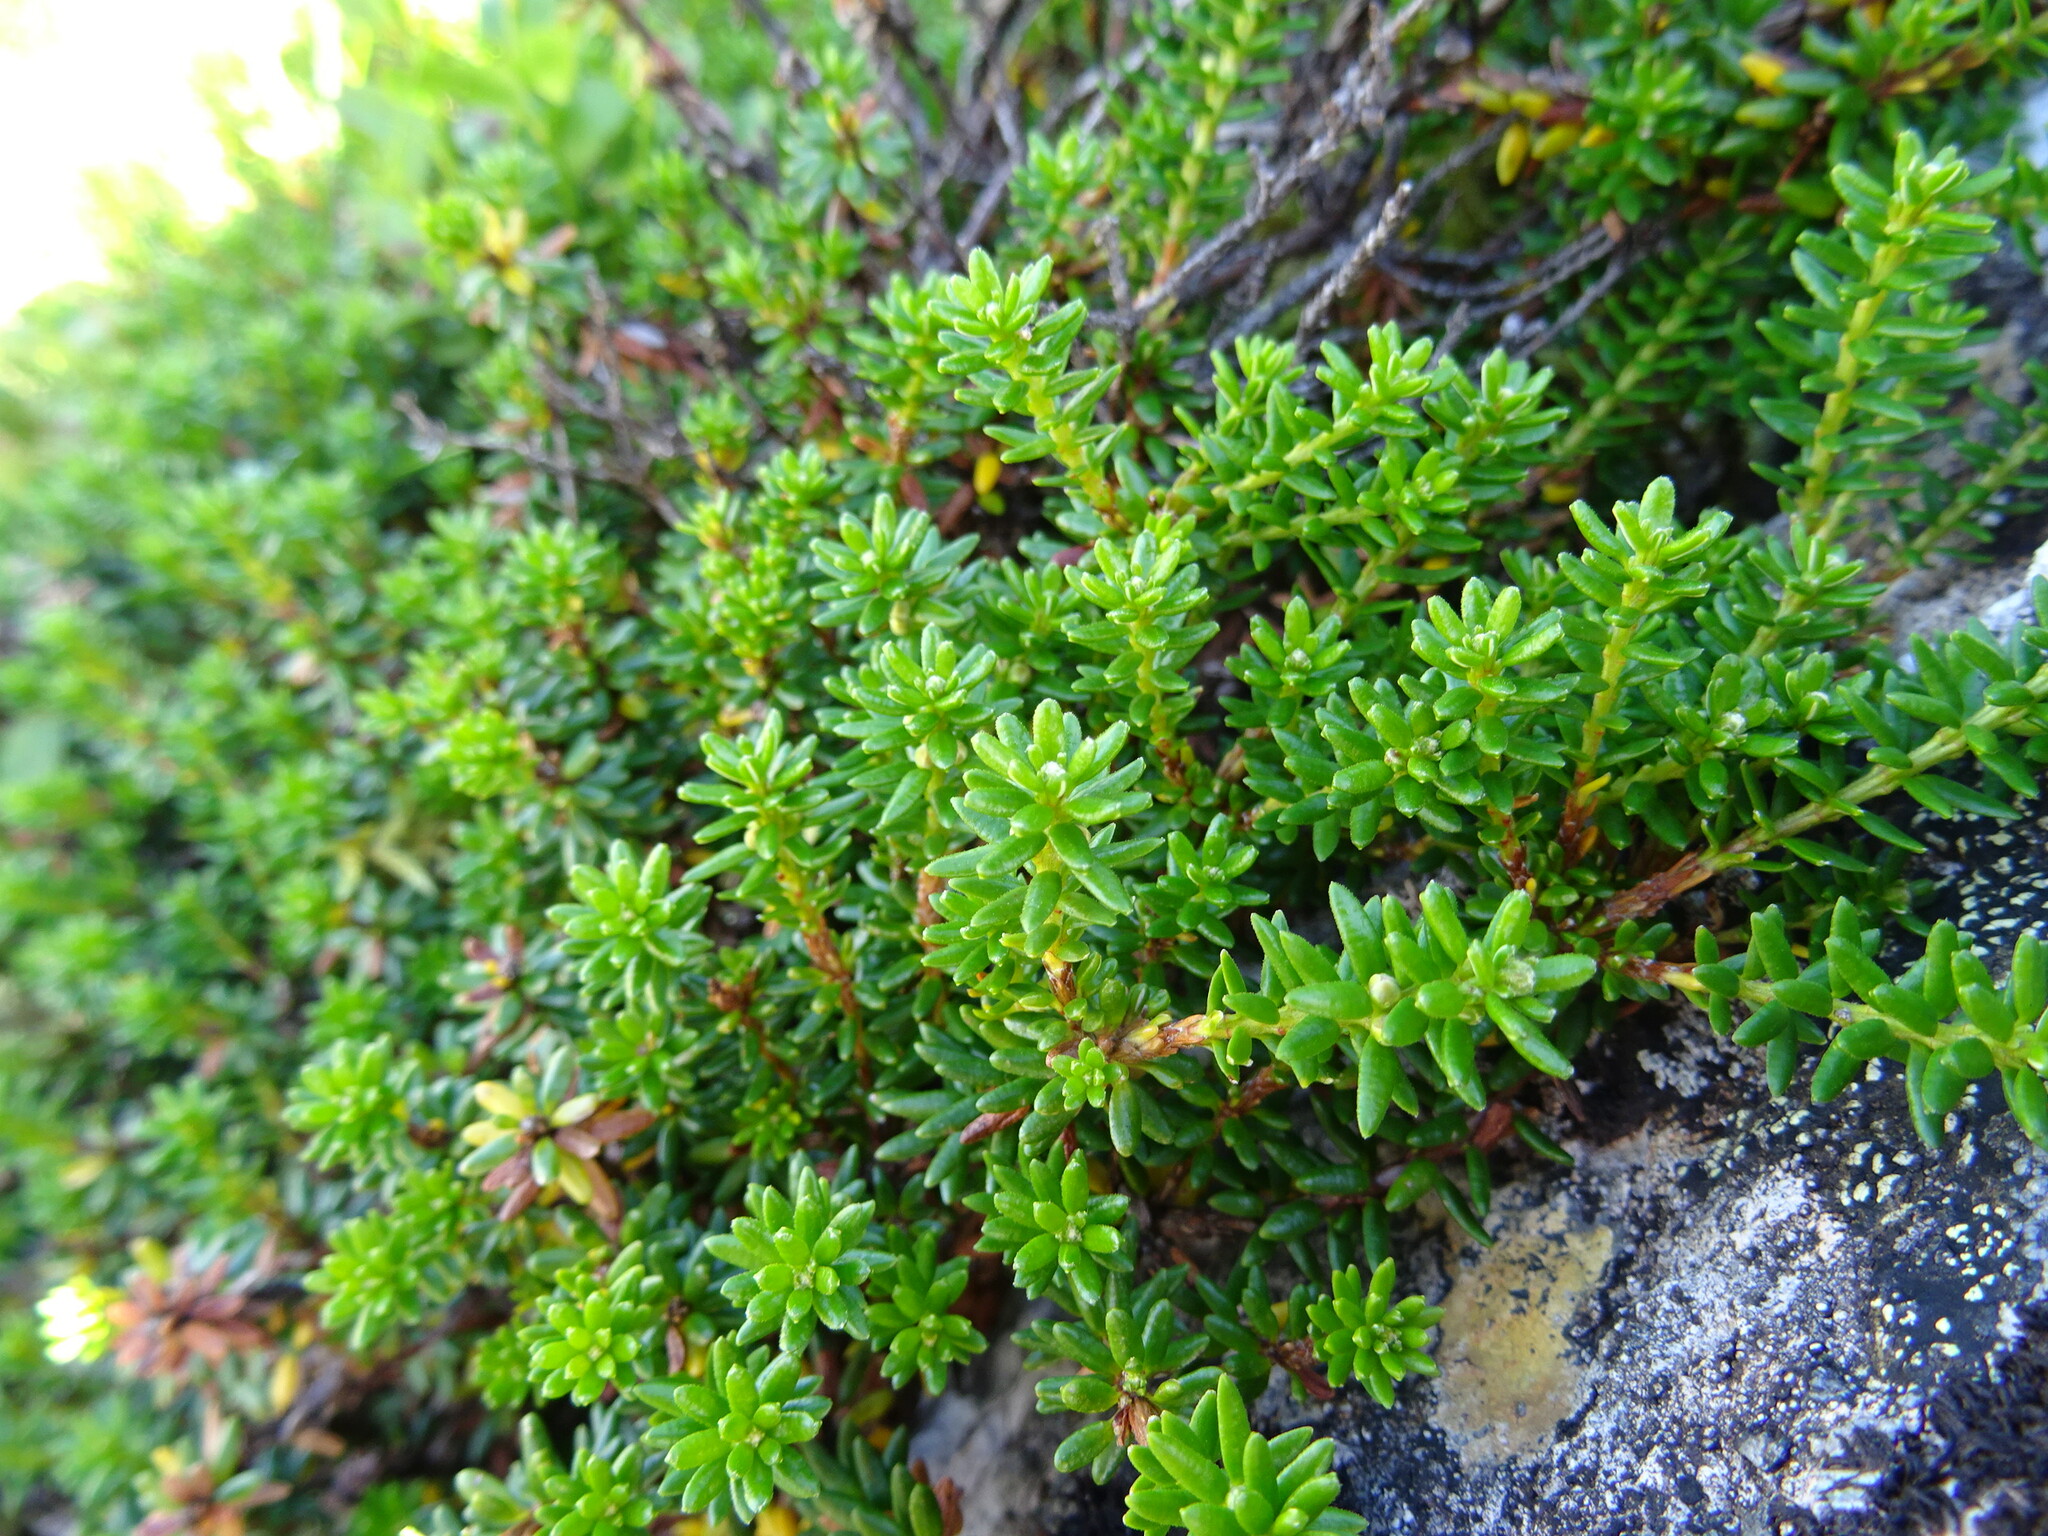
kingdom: Plantae
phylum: Tracheophyta
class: Magnoliopsida
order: Ericales
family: Ericaceae
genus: Empetrum
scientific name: Empetrum nigrum
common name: Black crowberry
